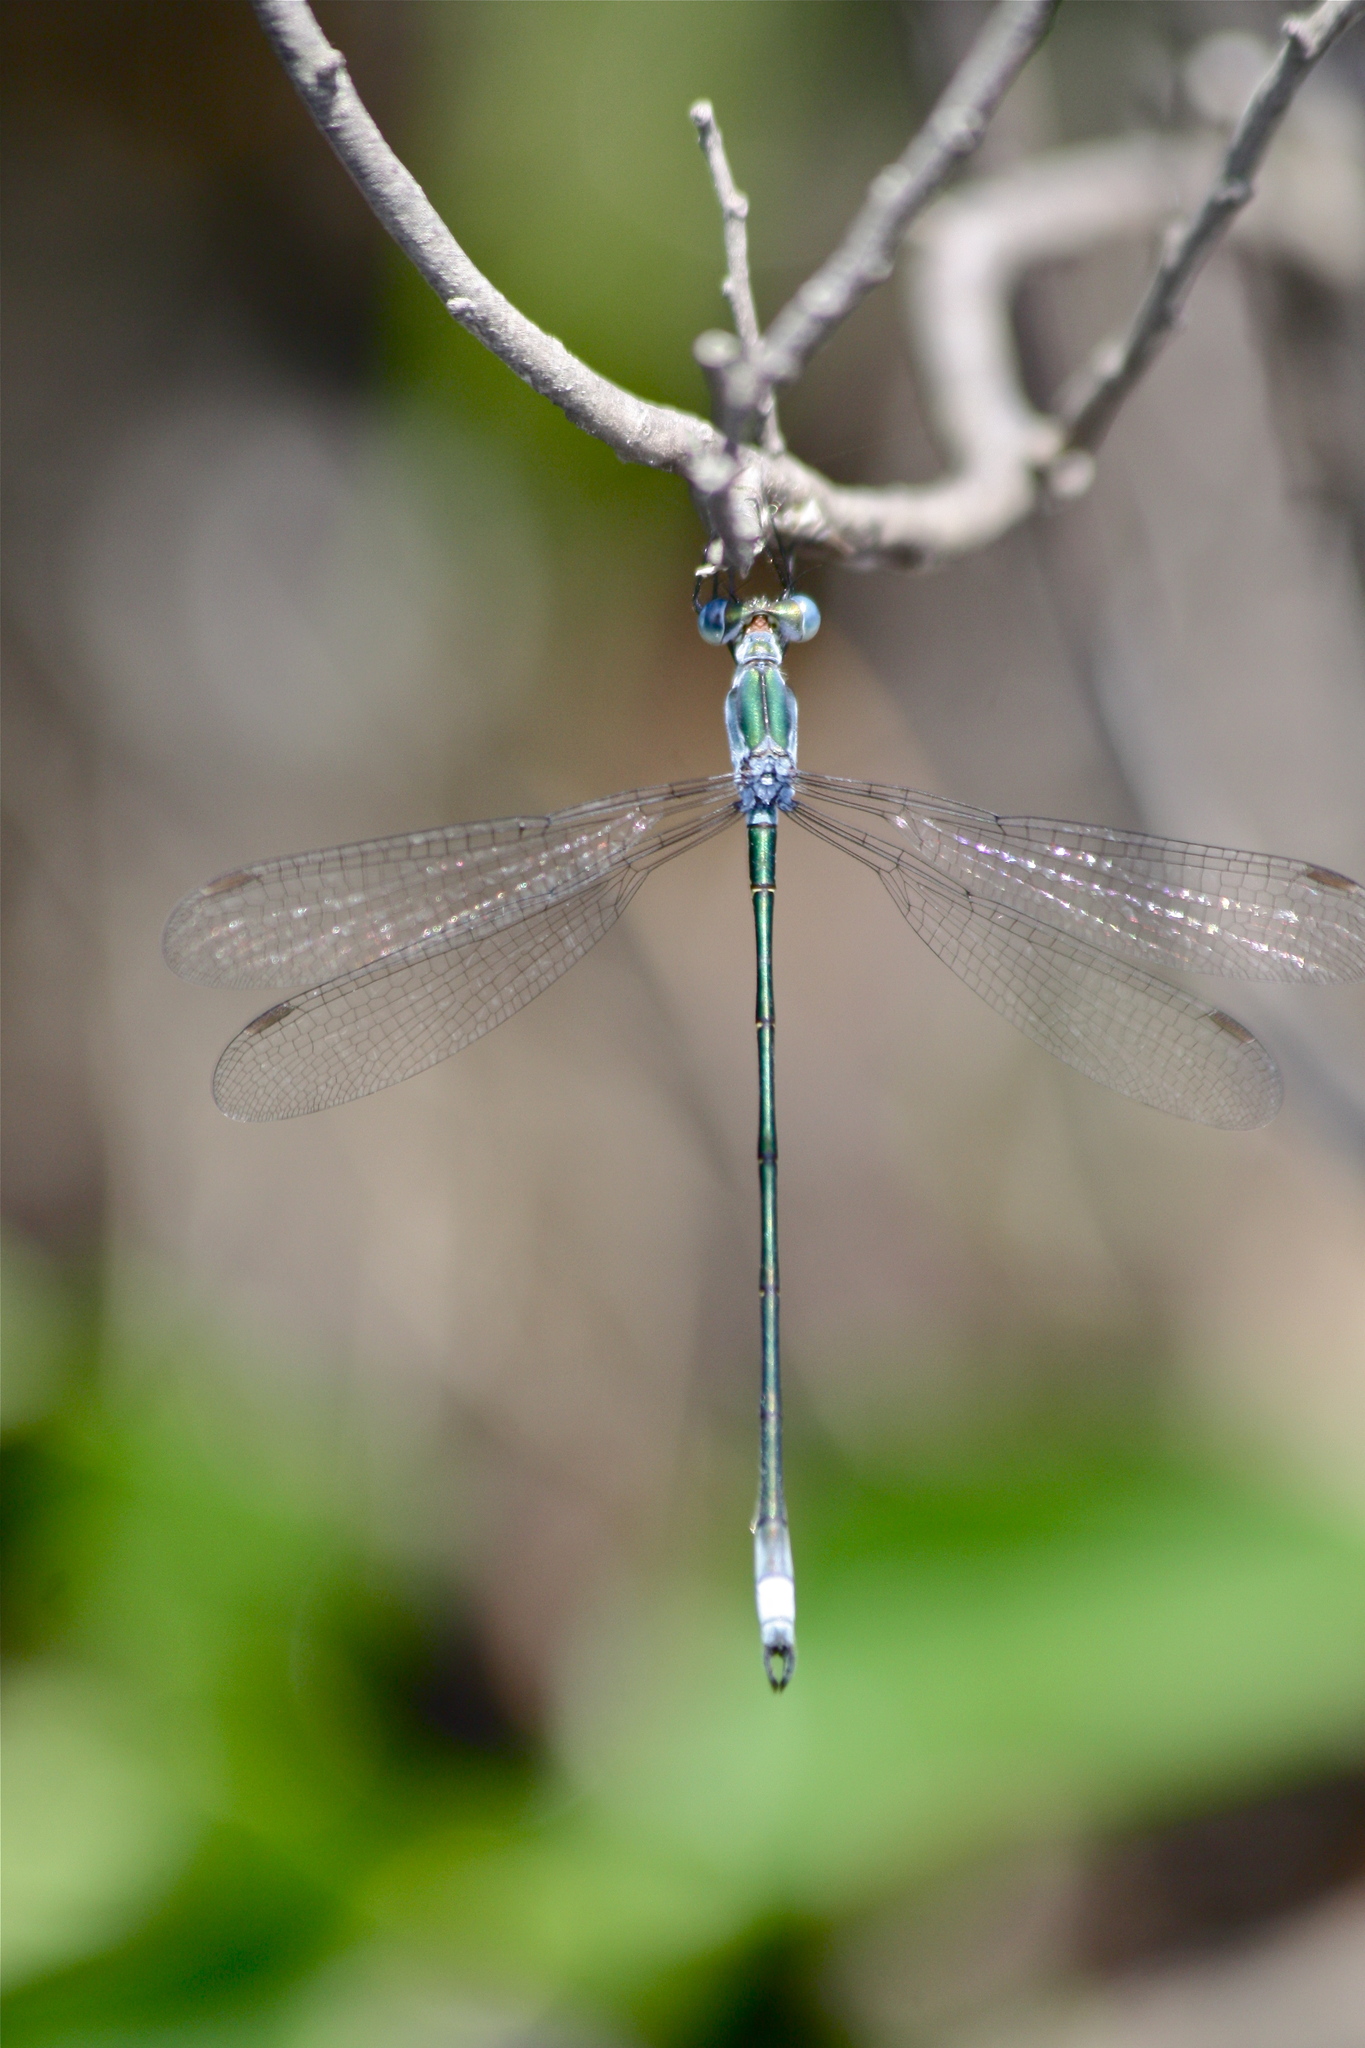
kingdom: Animalia
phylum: Arthropoda
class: Insecta
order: Odonata
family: Lestidae
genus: Lestes
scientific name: Lestes vigilax
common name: Swamp spreadwing
